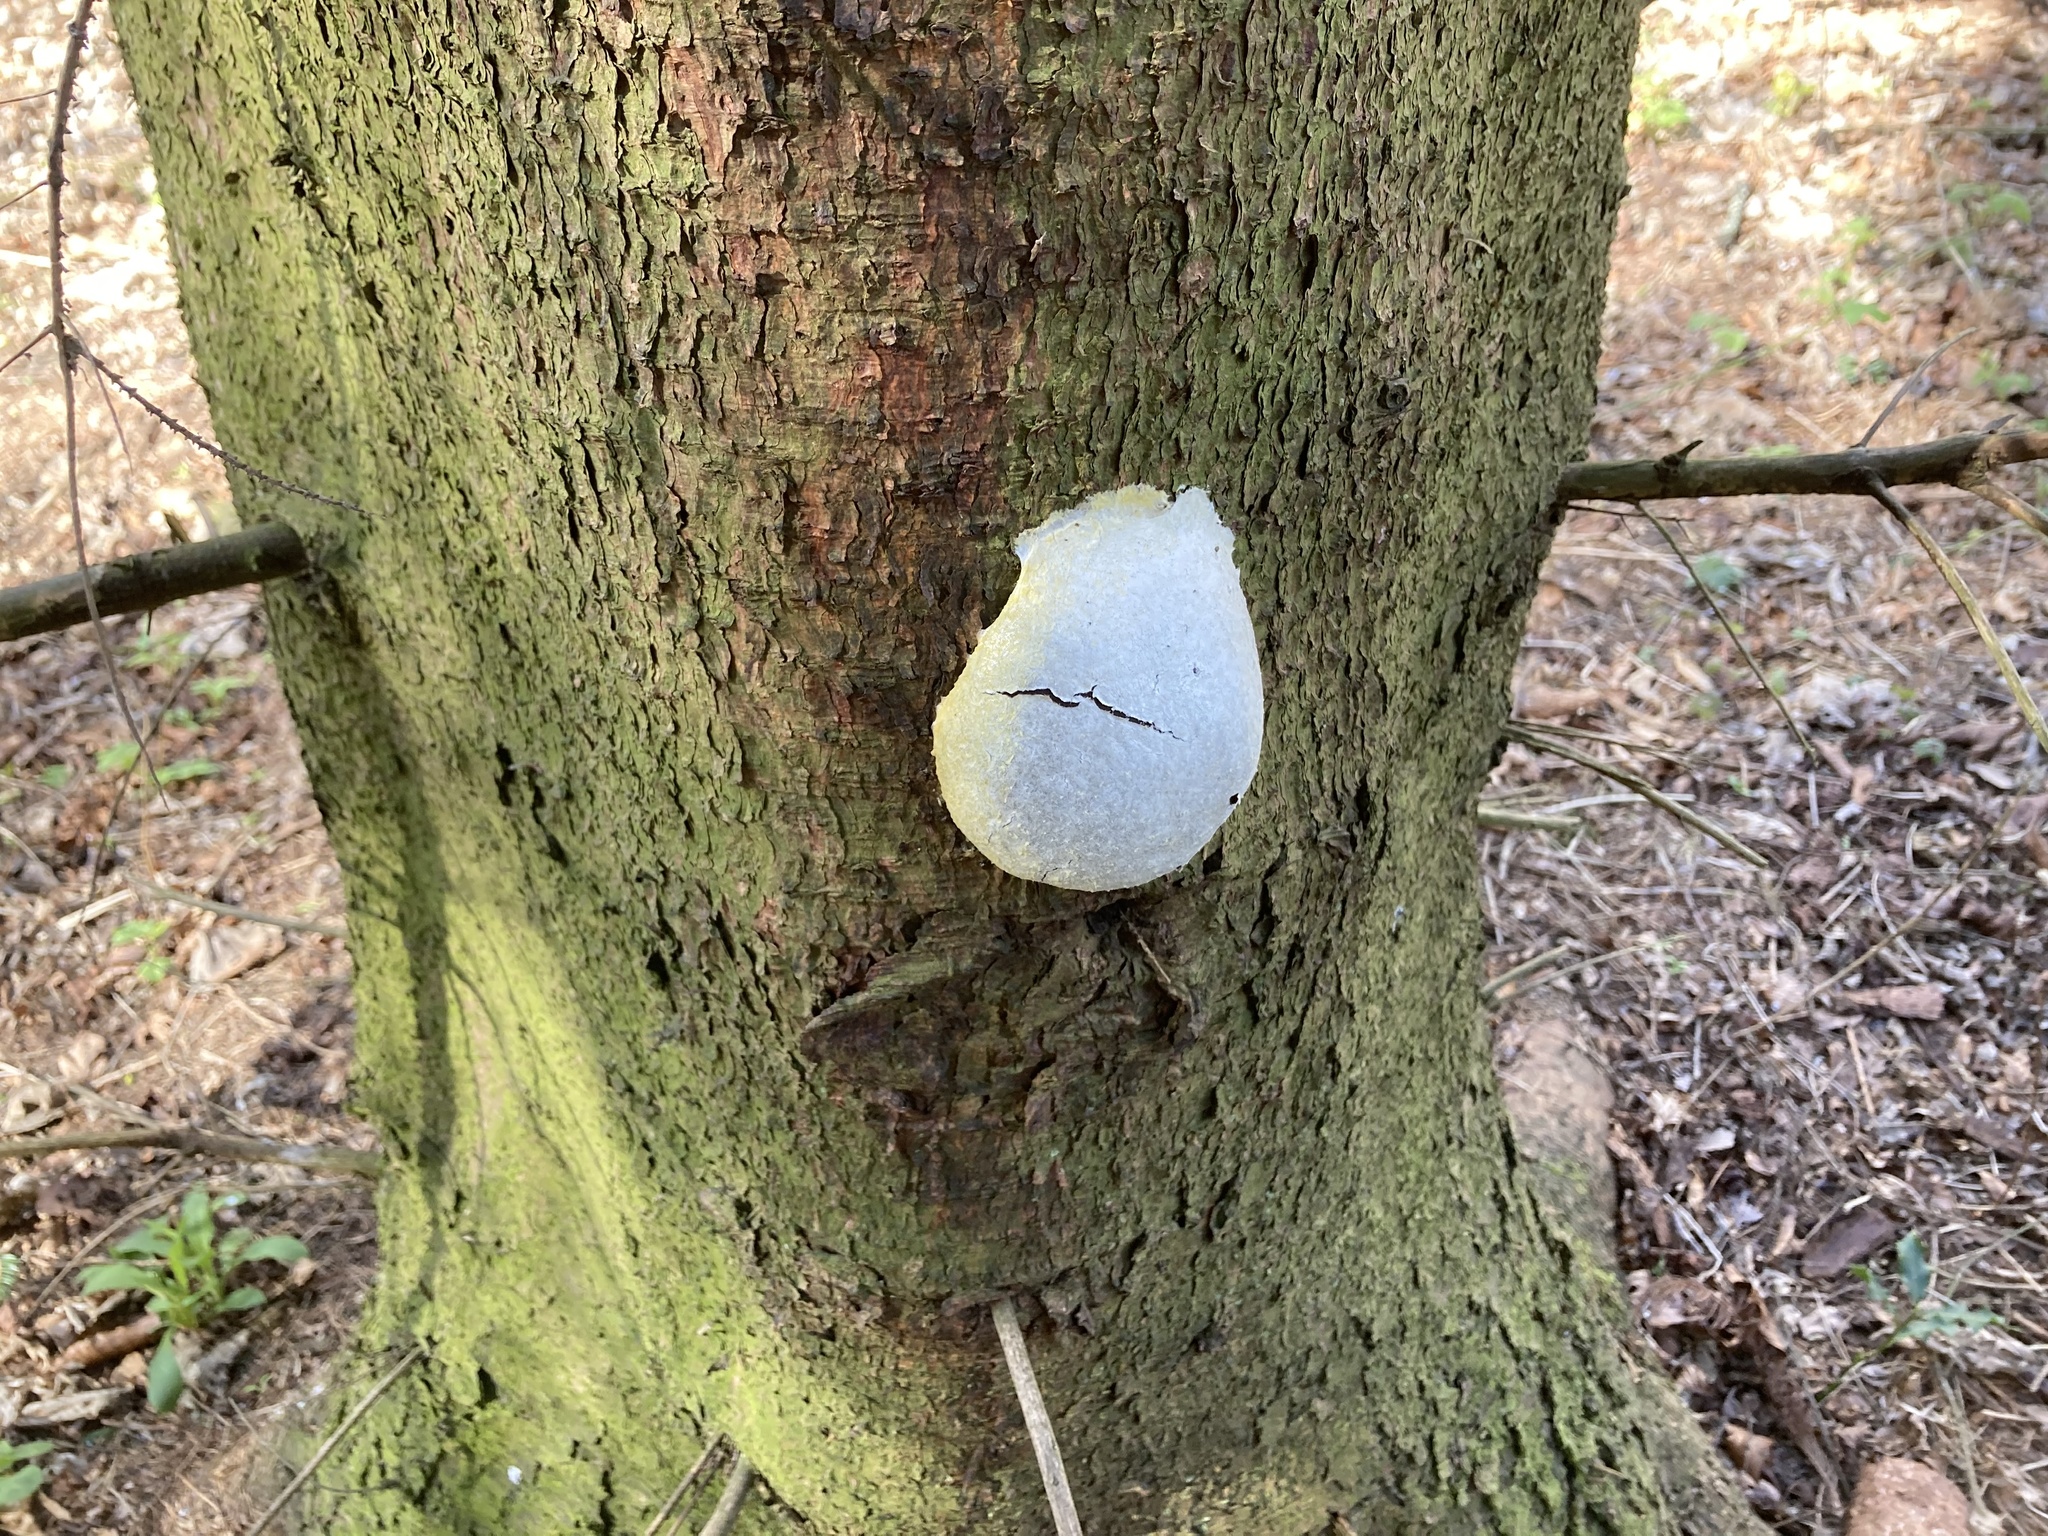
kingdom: Protozoa
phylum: Mycetozoa
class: Myxomycetes
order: Cribrariales
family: Tubiferaceae
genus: Reticularia
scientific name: Reticularia lycoperdon
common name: False puffball
